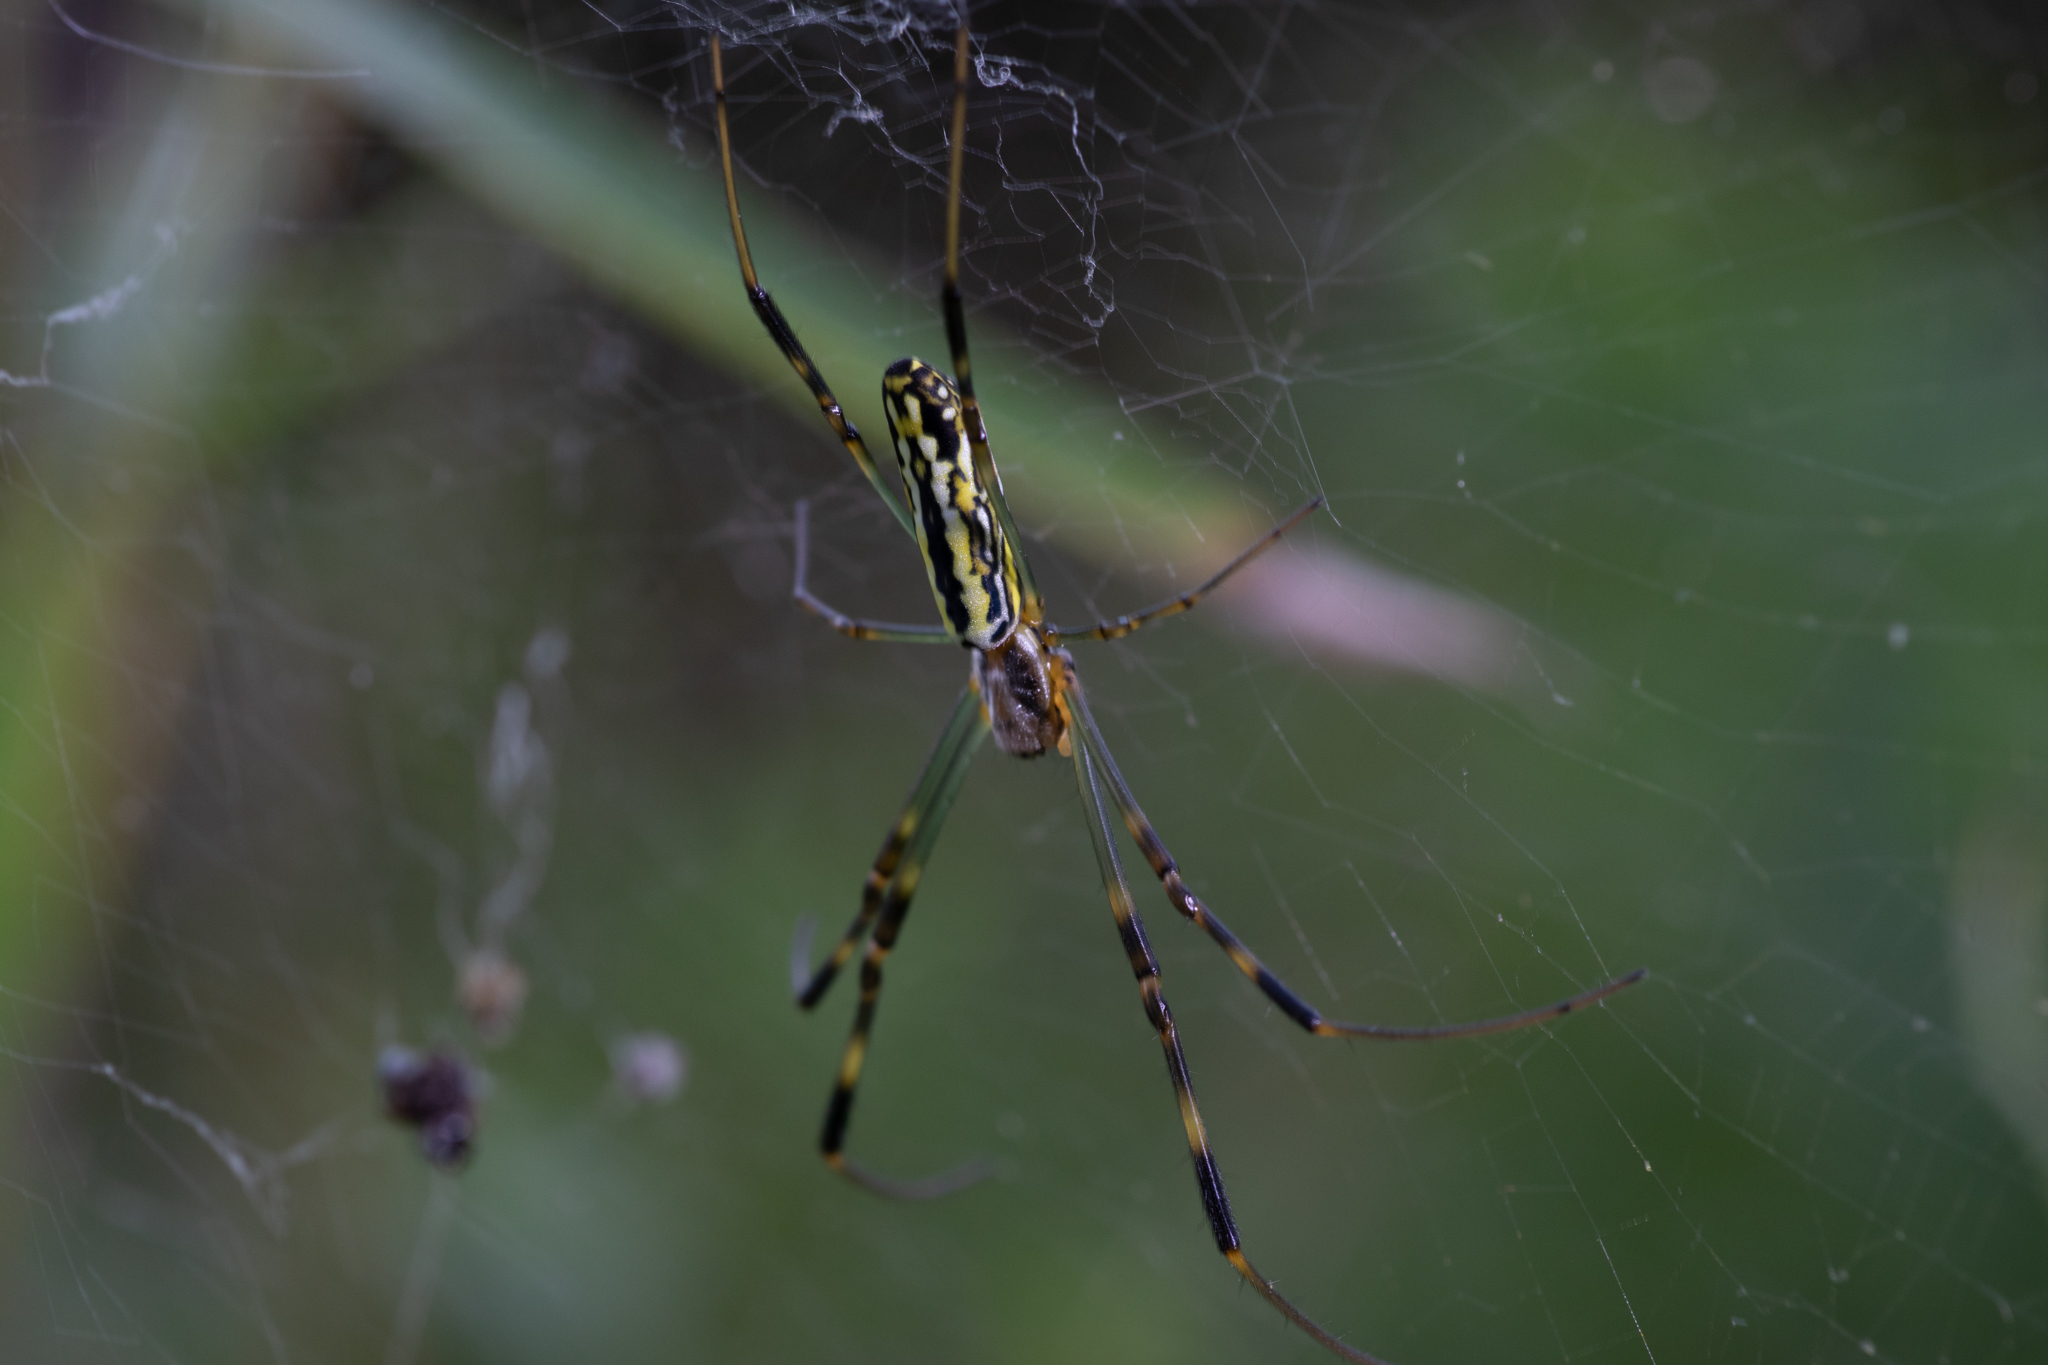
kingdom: Animalia
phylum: Arthropoda
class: Arachnida
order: Araneae
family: Araneidae
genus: Trichonephila
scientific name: Trichonephila clavata
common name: Jorō spider
